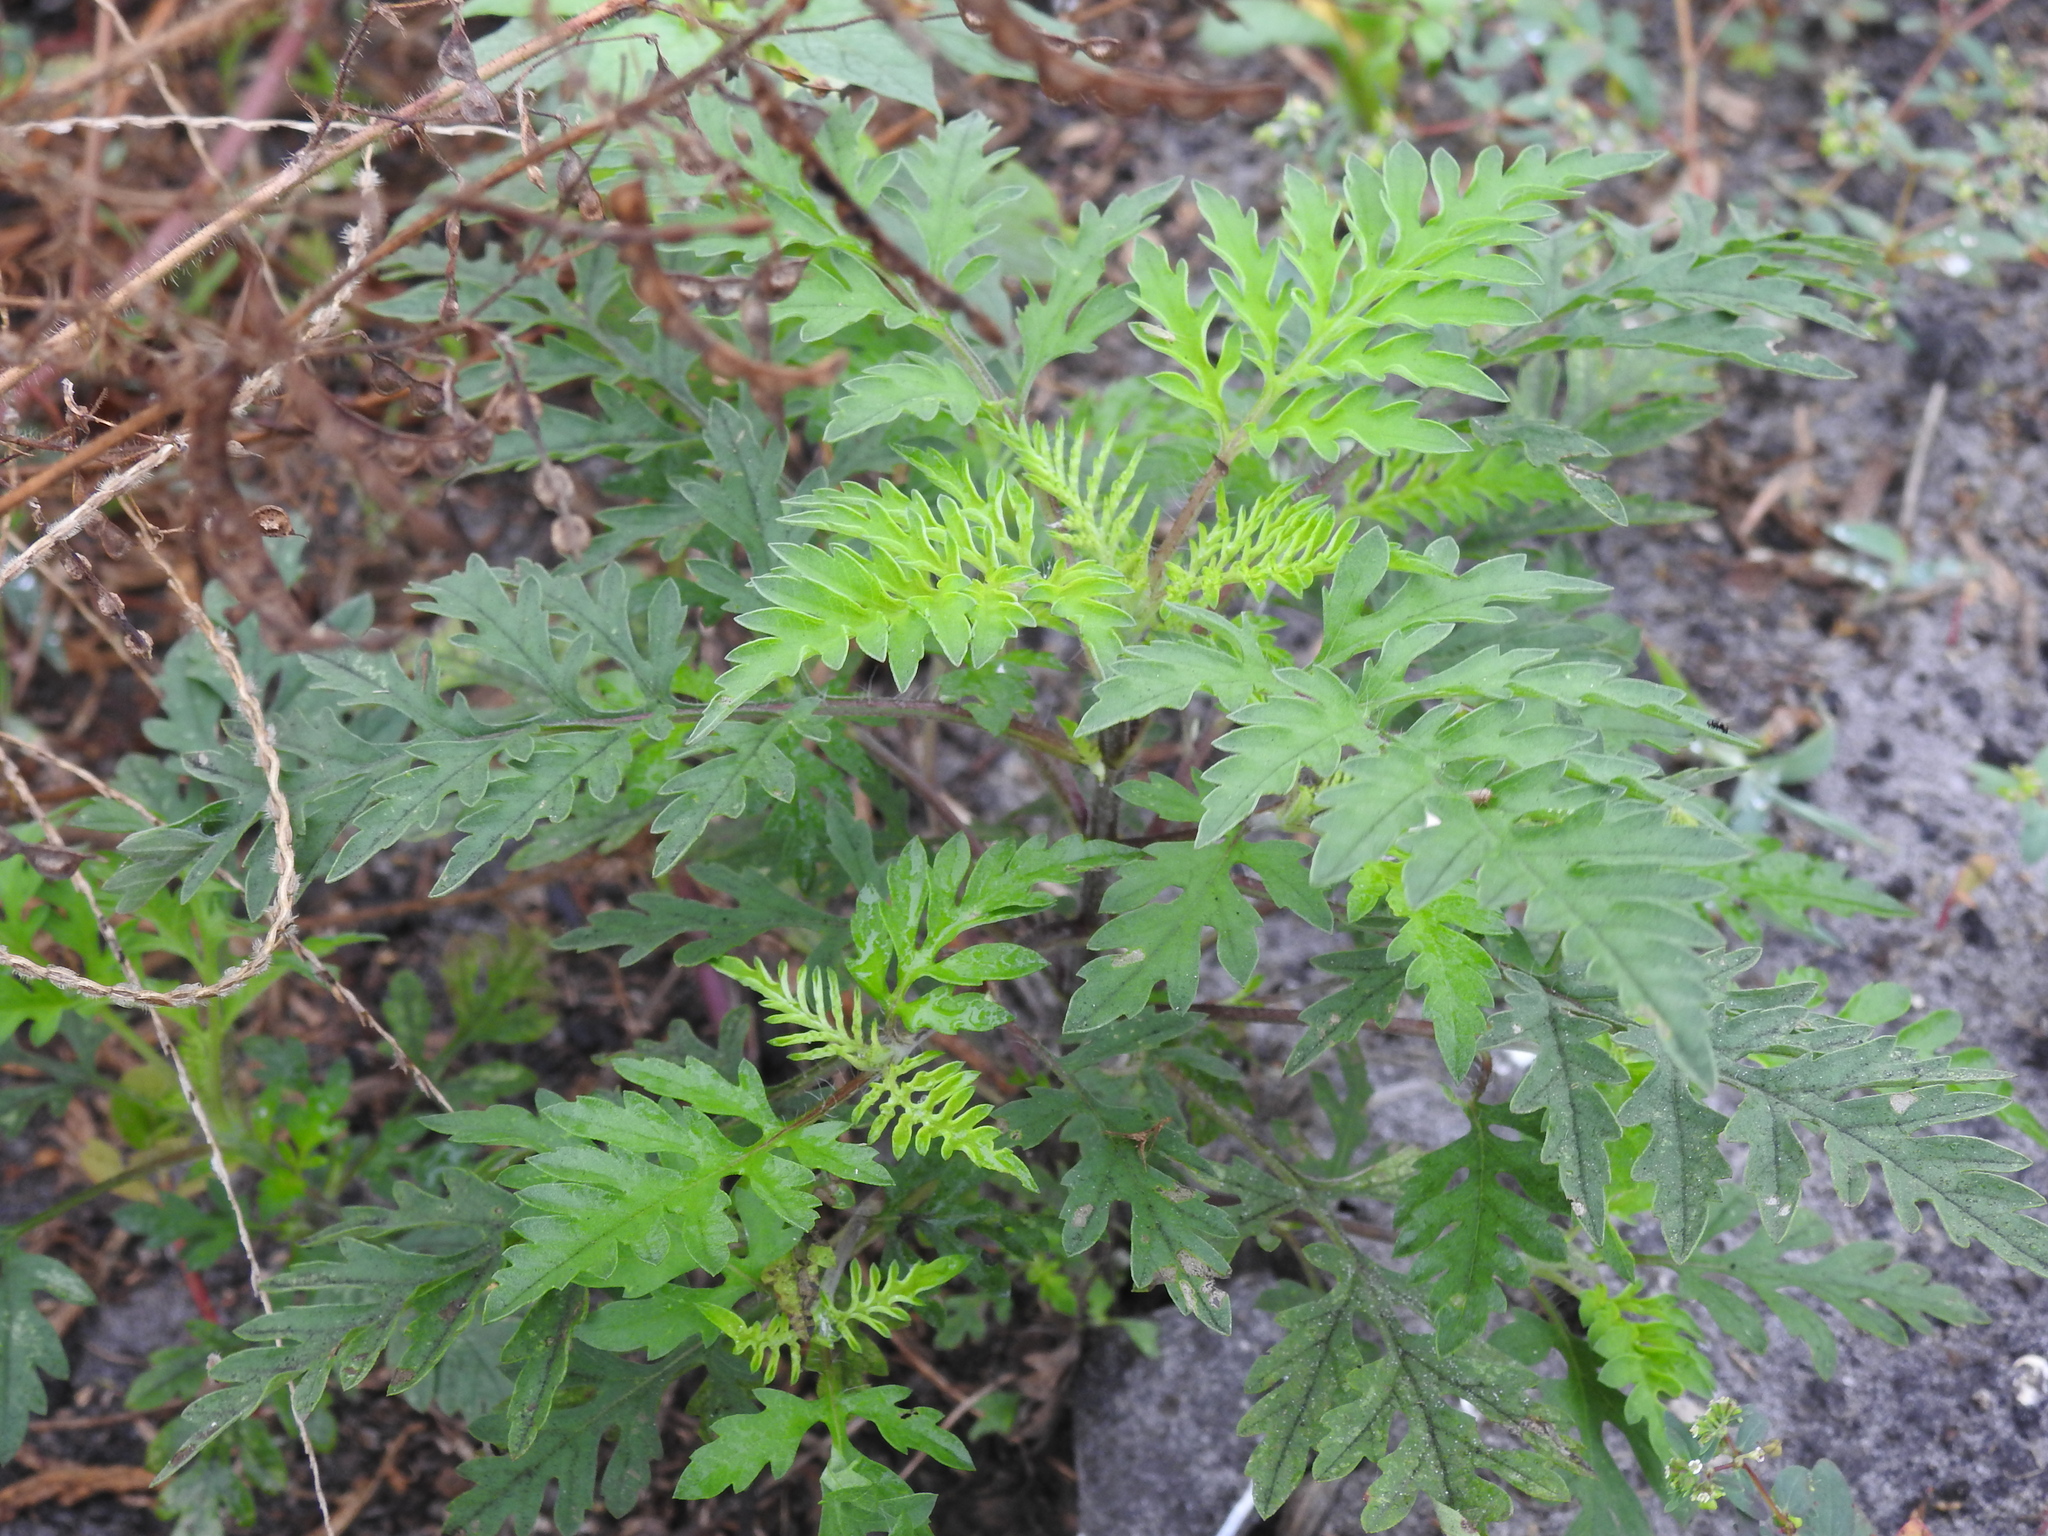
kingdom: Plantae
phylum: Tracheophyta
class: Magnoliopsida
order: Asterales
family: Asteraceae
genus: Ambrosia
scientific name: Ambrosia artemisiifolia
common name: Annual ragweed
